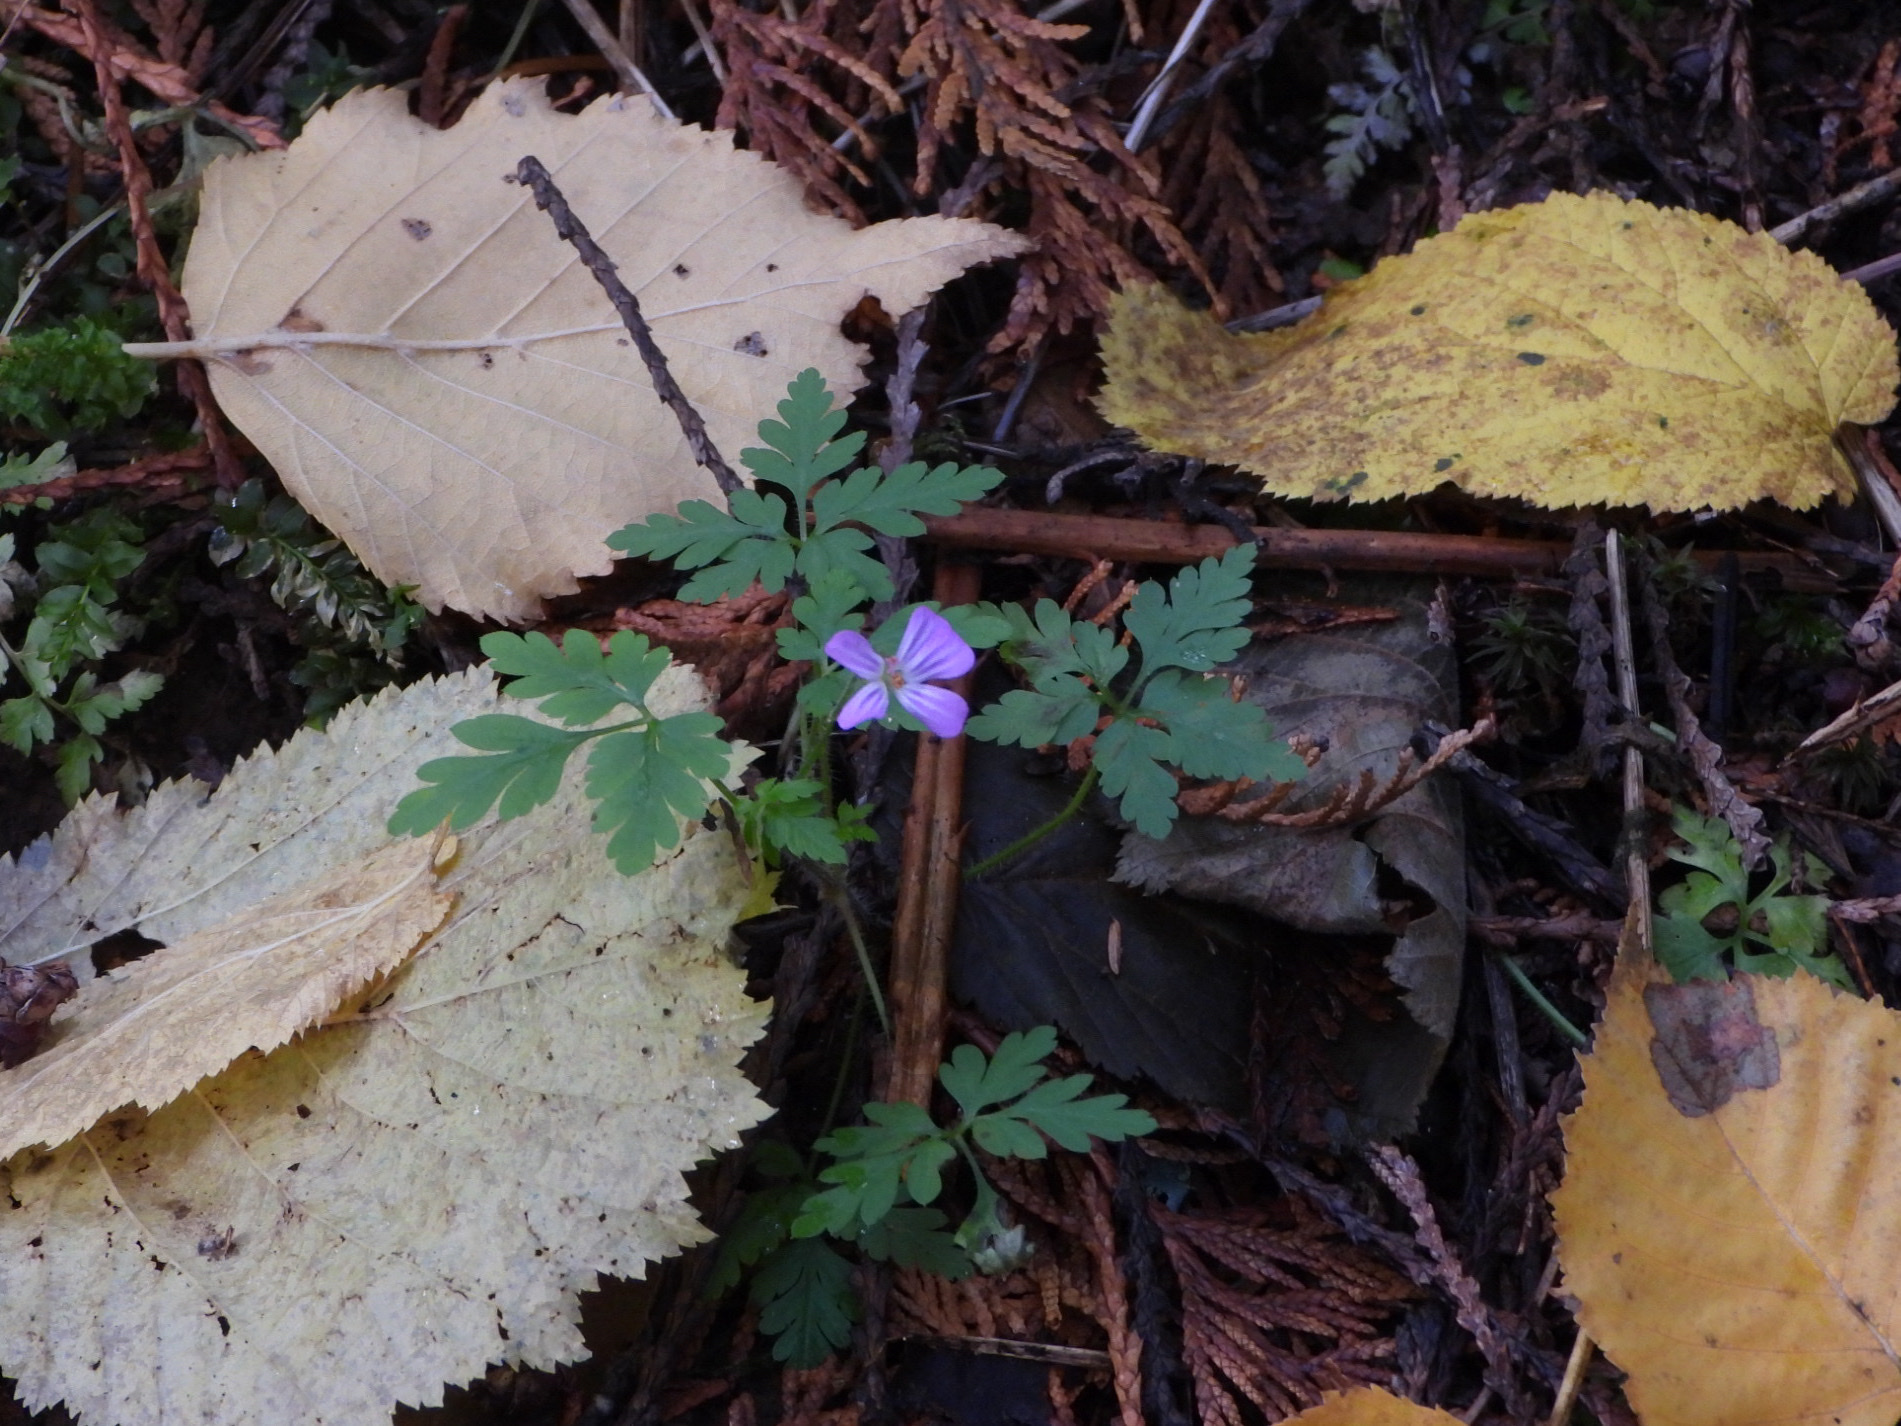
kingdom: Plantae
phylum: Tracheophyta
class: Magnoliopsida
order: Geraniales
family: Geraniaceae
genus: Geranium
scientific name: Geranium robertianum
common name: Herb-robert
